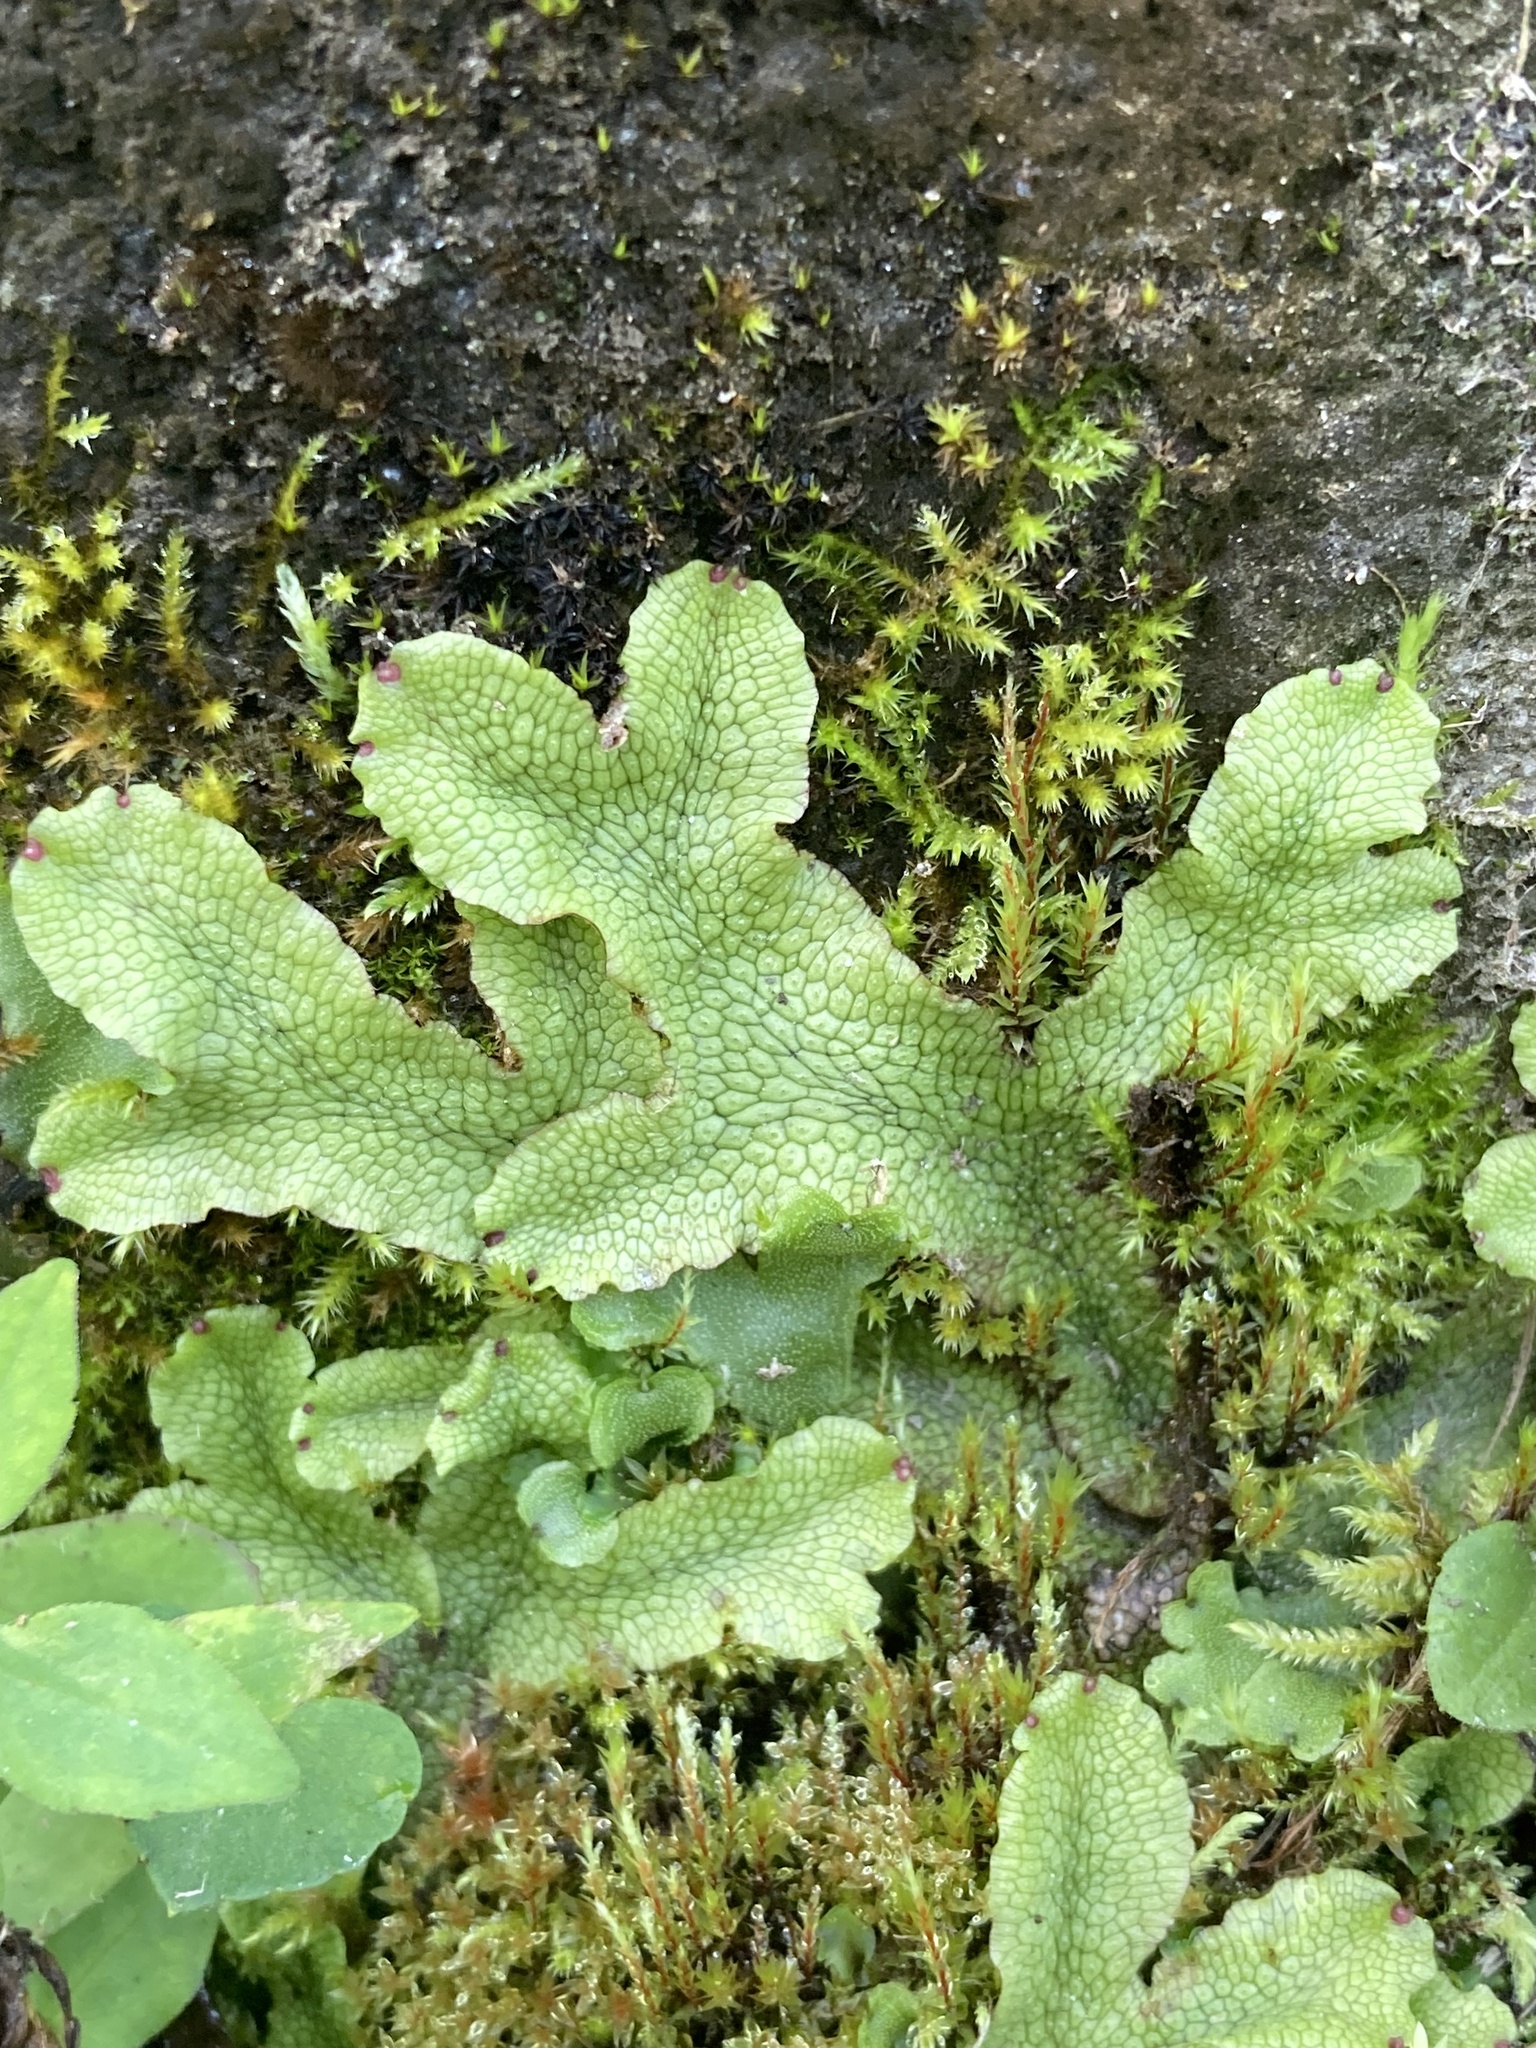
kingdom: Plantae
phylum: Marchantiophyta
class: Marchantiopsida
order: Marchantiales
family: Conocephalaceae
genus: Conocephalum
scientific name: Conocephalum salebrosum
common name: Cat-tongue liverwort
